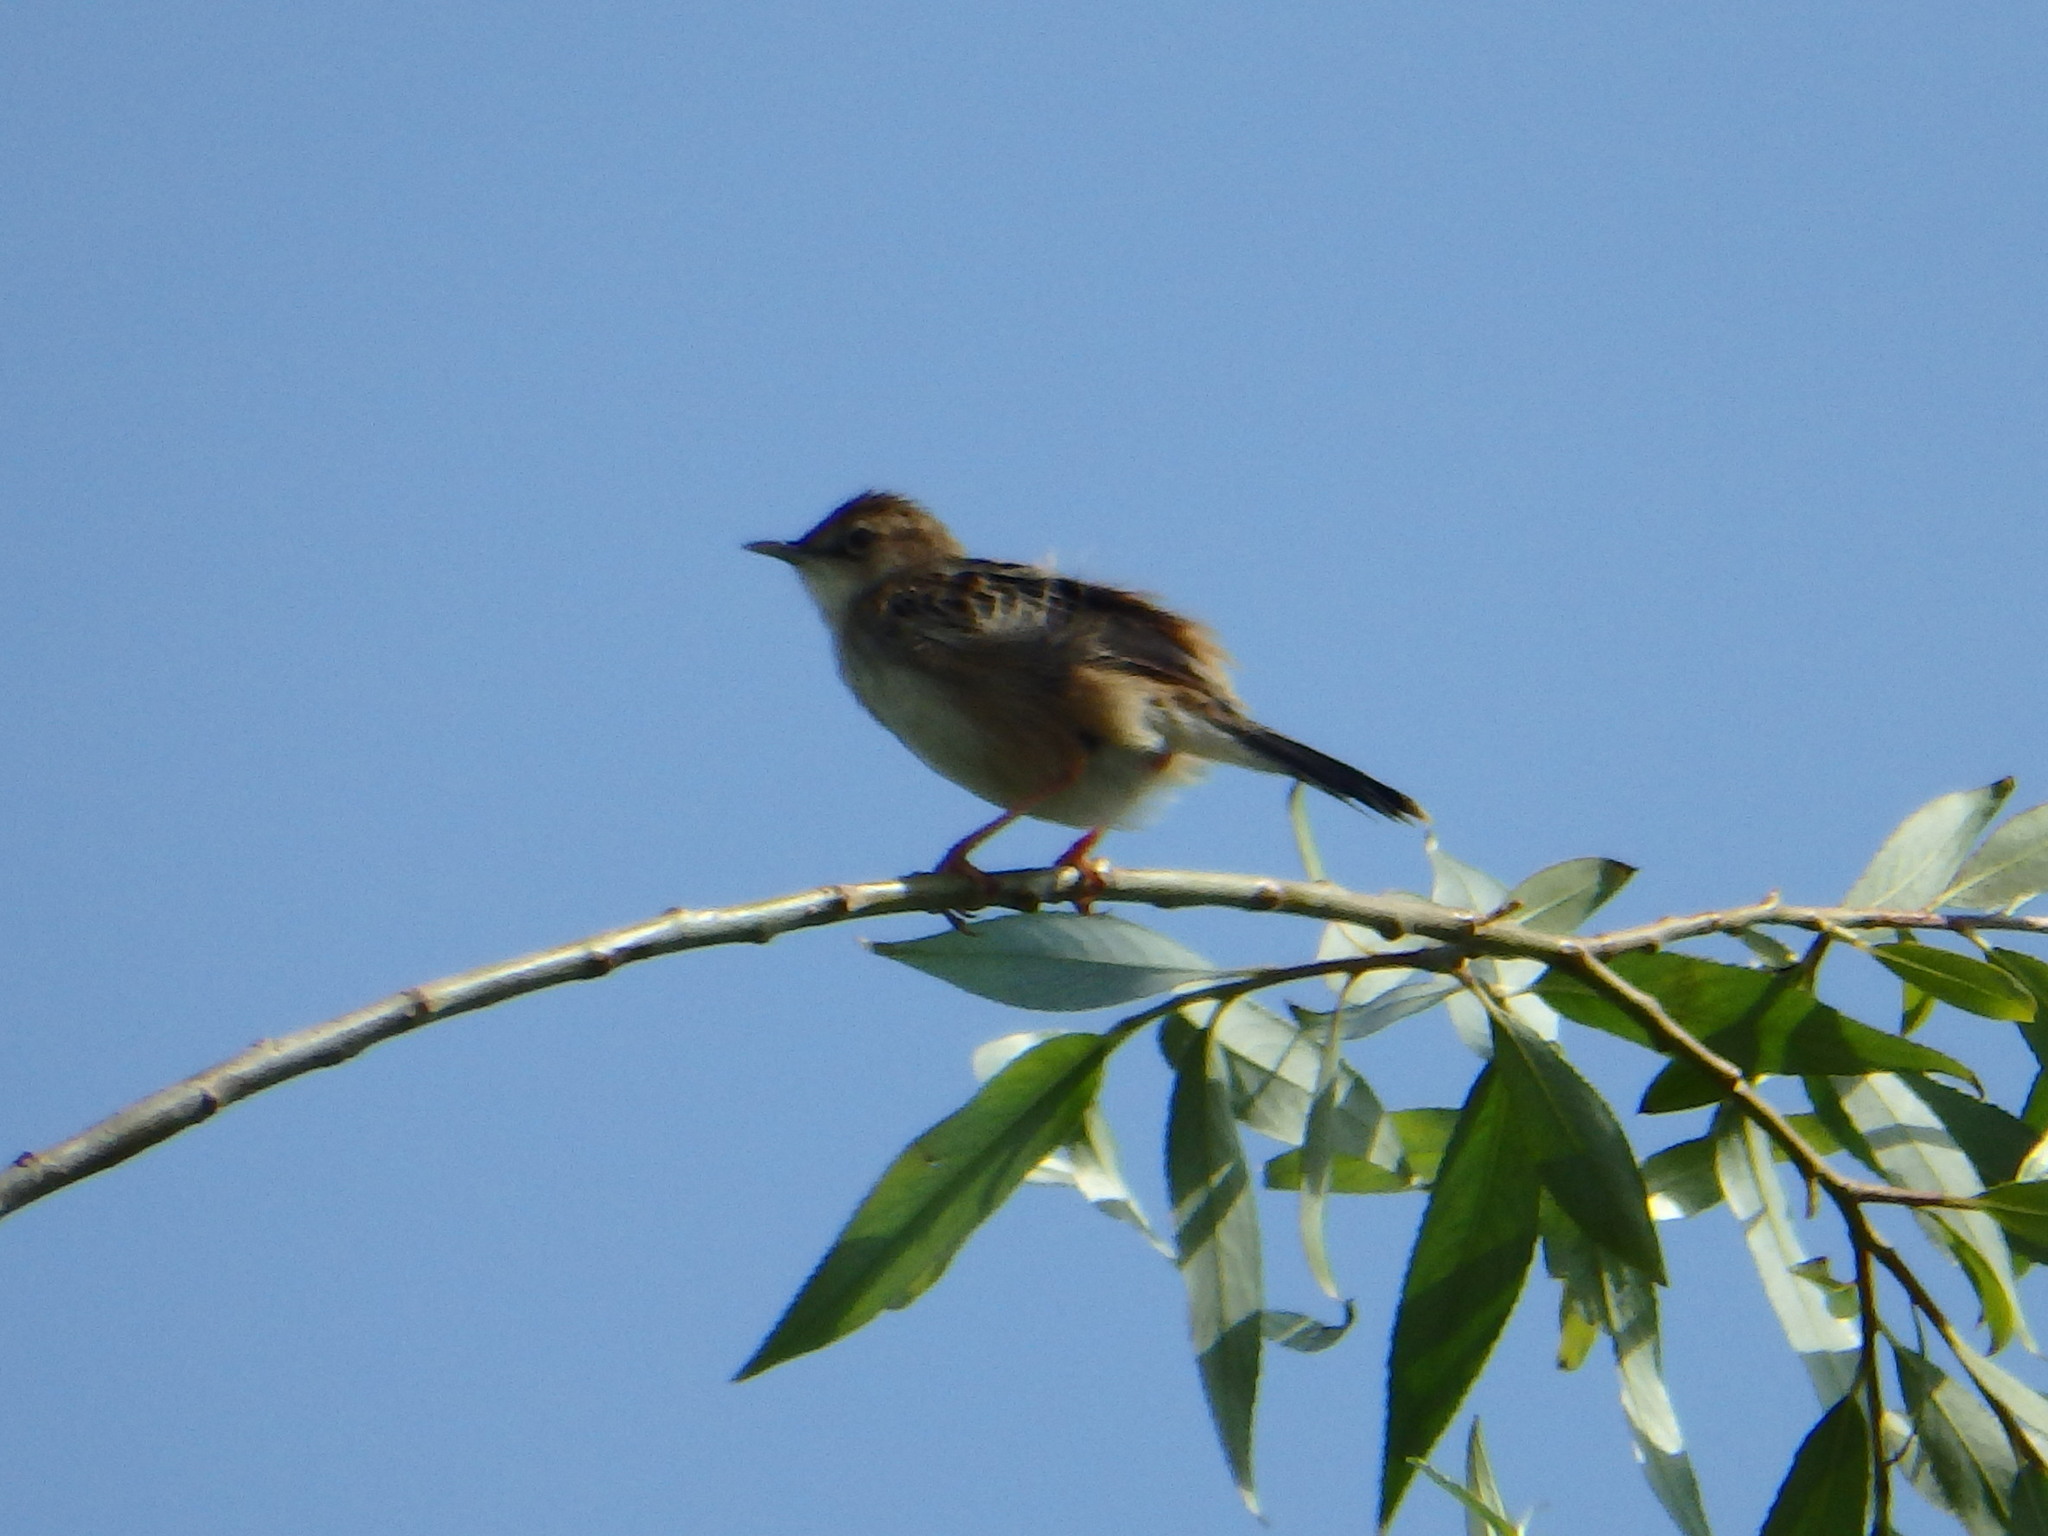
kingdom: Animalia
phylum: Chordata
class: Aves
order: Passeriformes
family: Cisticolidae
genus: Cisticola
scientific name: Cisticola juncidis
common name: Zitting cisticola
